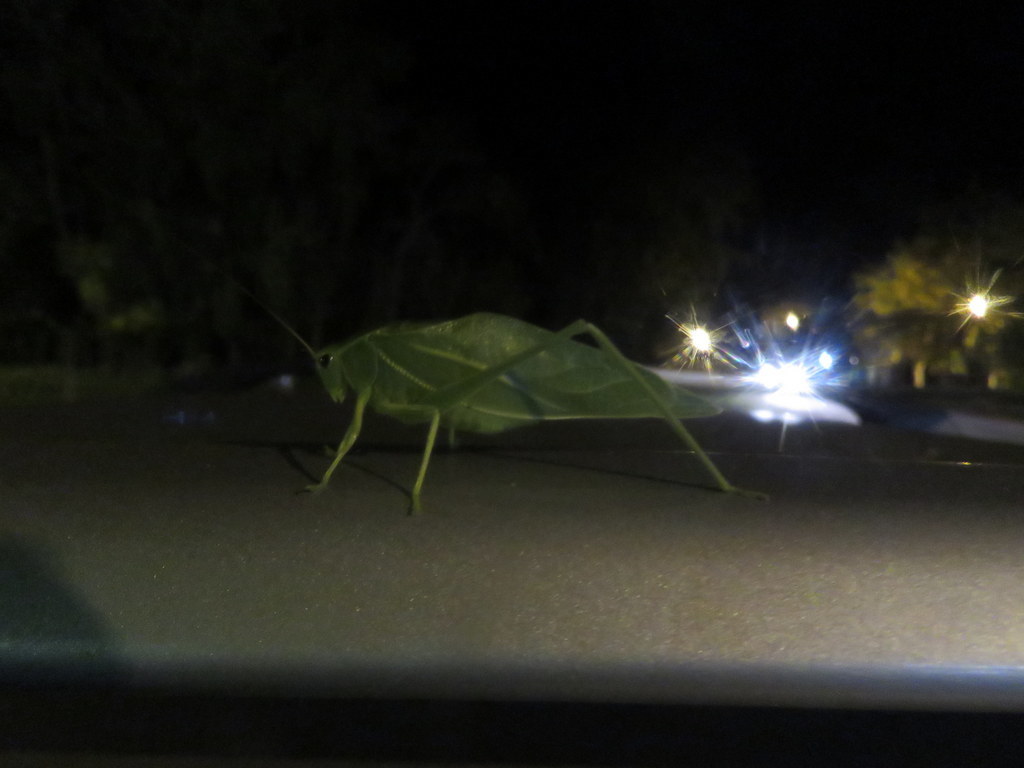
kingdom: Animalia
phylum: Arthropoda
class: Insecta
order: Orthoptera
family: Tettigoniidae
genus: Microcentrum
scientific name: Microcentrum marginatum
